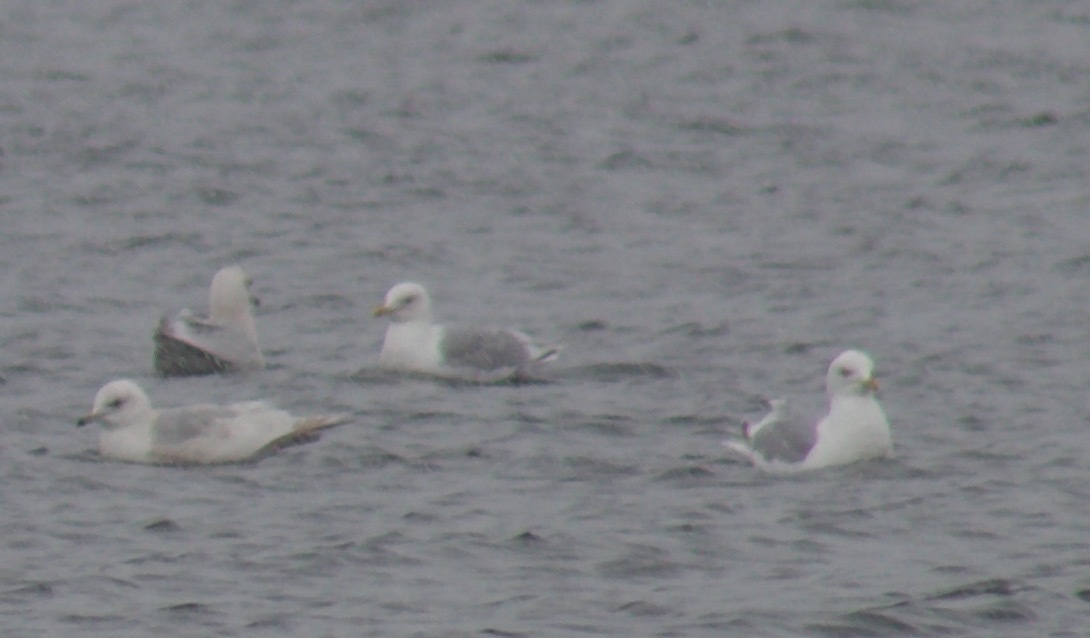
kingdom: Animalia
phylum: Chordata
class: Aves
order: Charadriiformes
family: Laridae
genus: Larus
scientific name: Larus glaucoides
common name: Iceland gull
